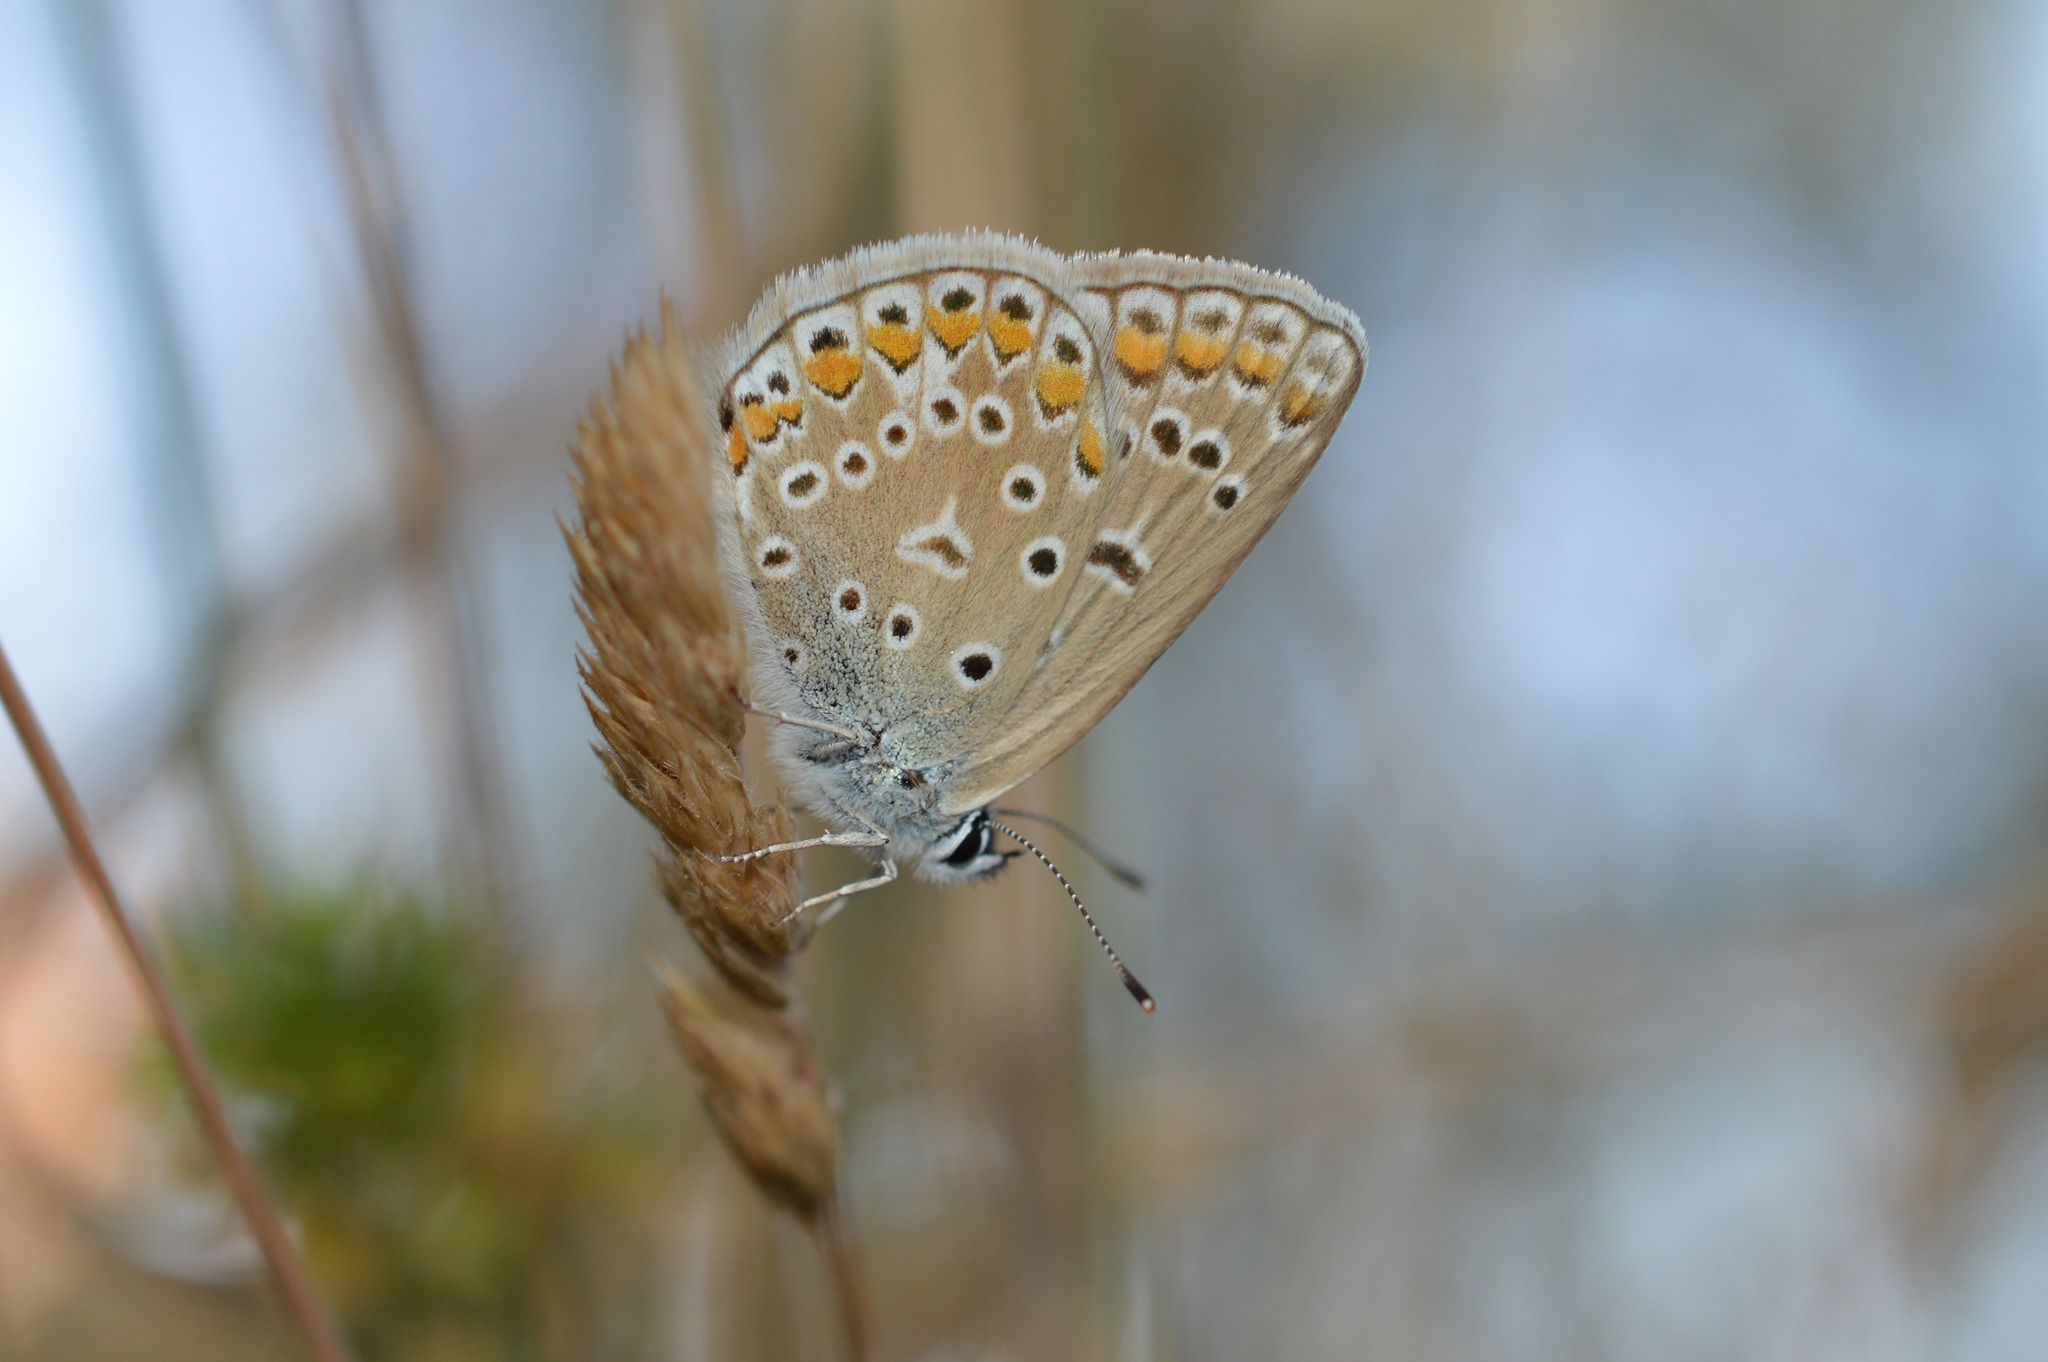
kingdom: Animalia
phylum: Arthropoda
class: Insecta
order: Lepidoptera
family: Lycaenidae
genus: Polyommatus
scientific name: Polyommatus icarus
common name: Common blue
